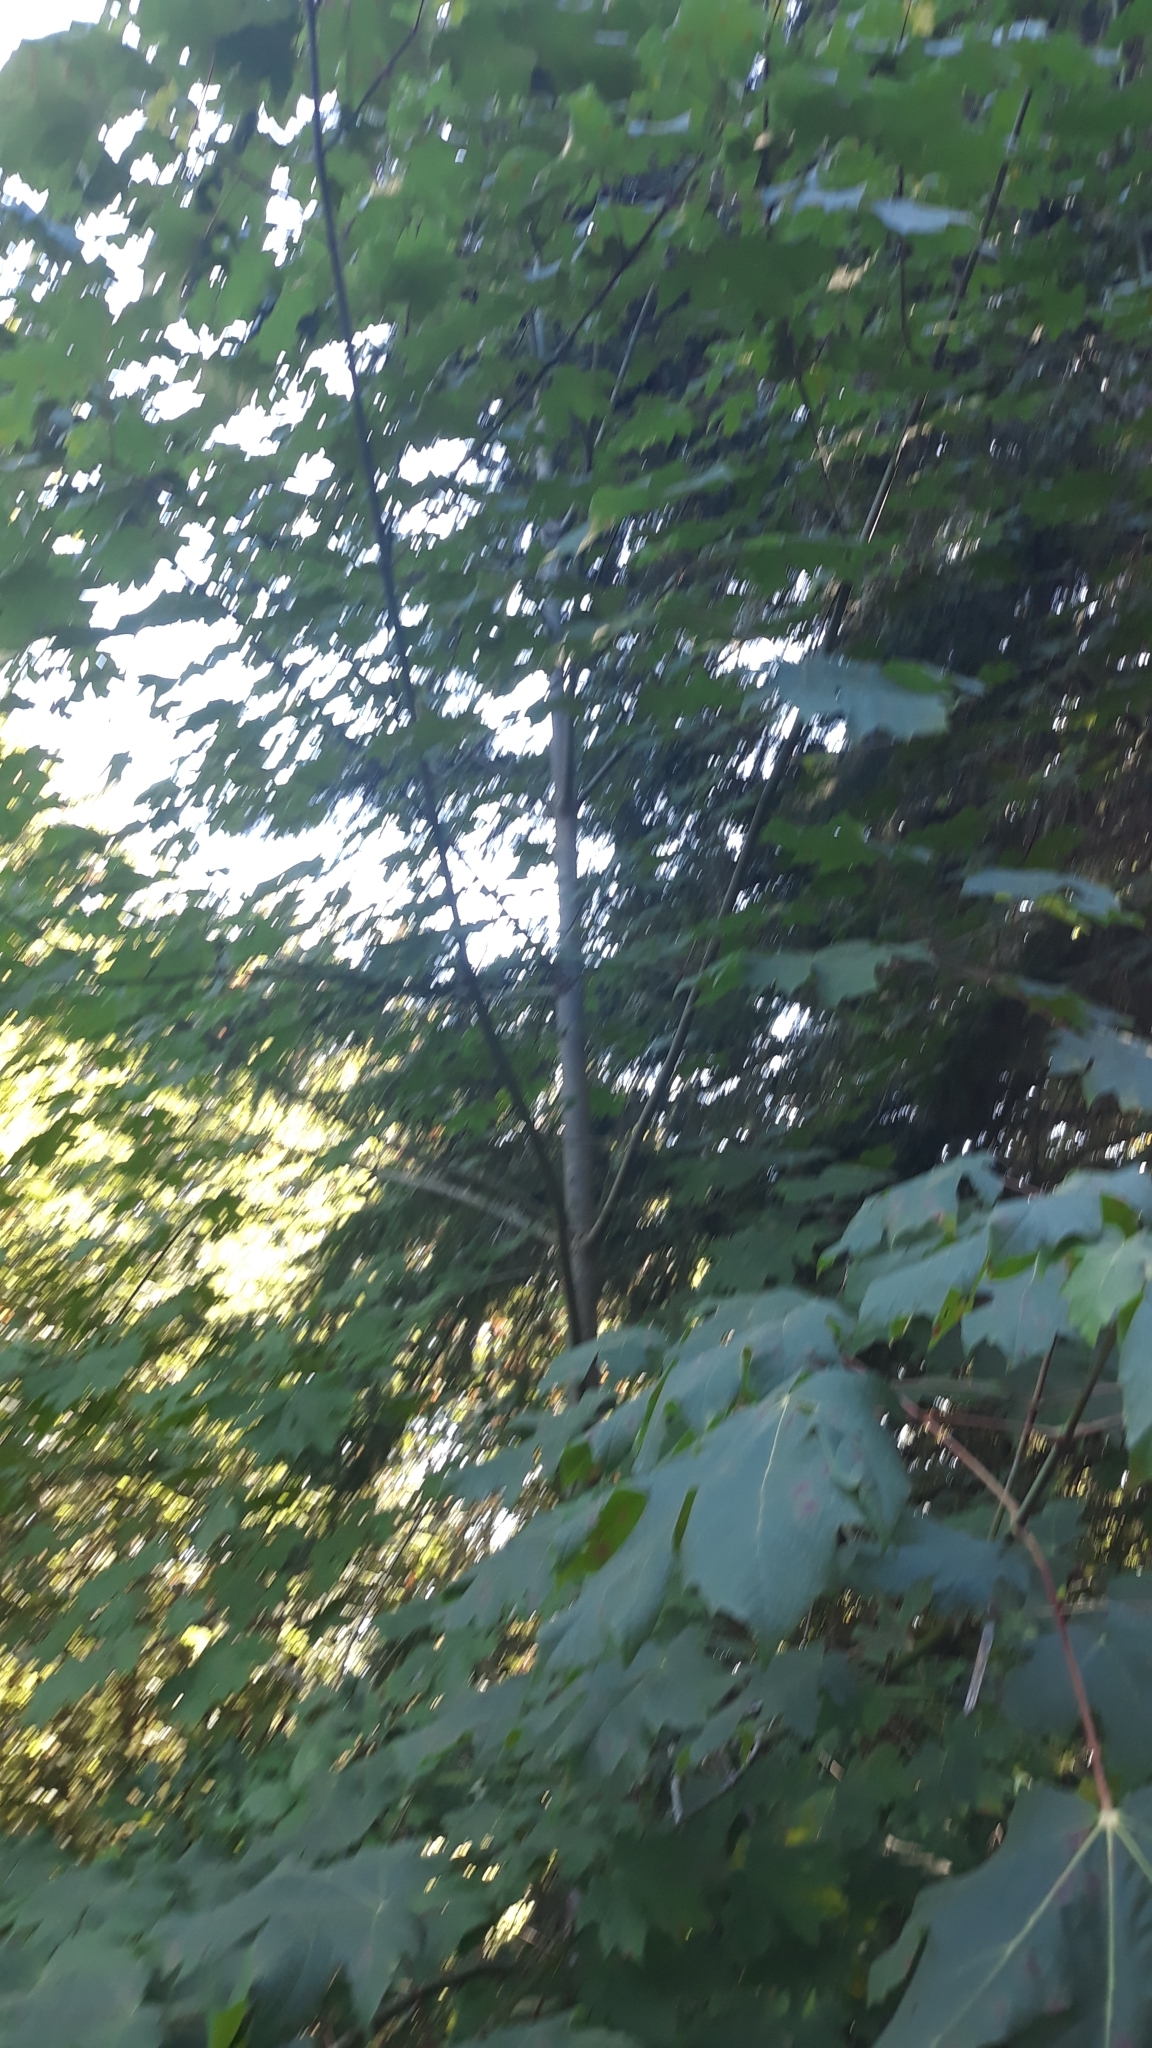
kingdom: Plantae
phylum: Tracheophyta
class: Magnoliopsida
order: Sapindales
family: Sapindaceae
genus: Acer
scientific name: Acer macrophyllum
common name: Oregon maple
